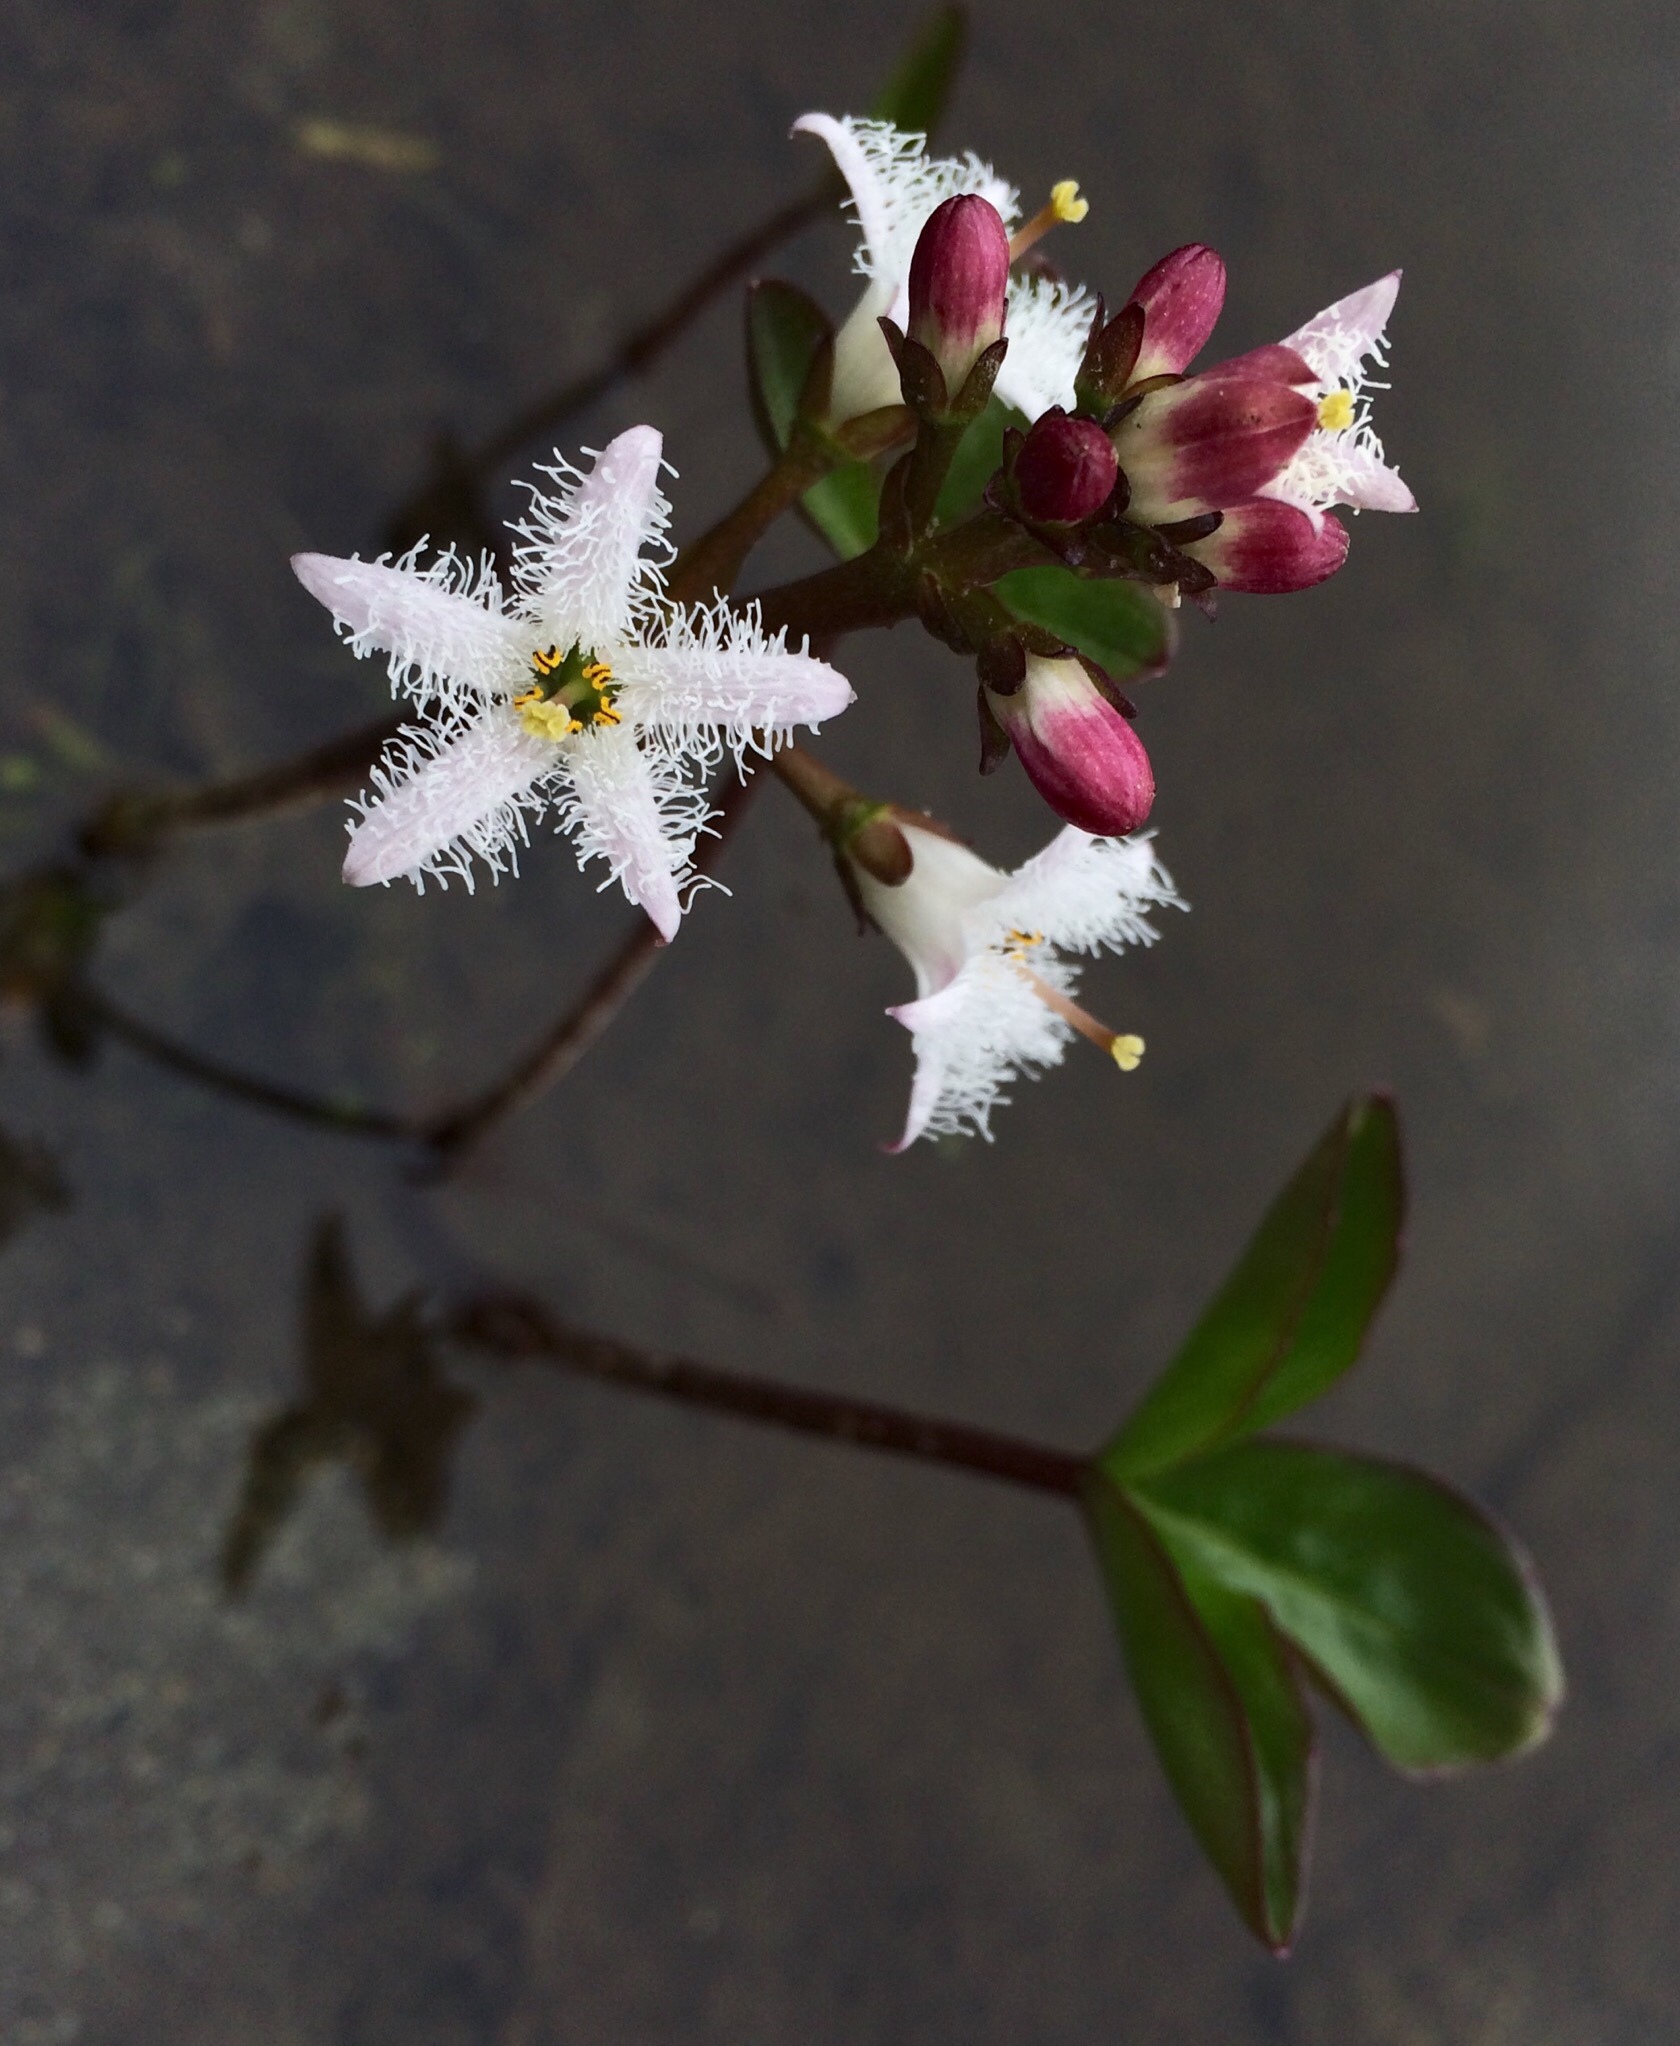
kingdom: Plantae
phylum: Tracheophyta
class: Magnoliopsida
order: Asterales
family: Menyanthaceae
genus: Menyanthes
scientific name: Menyanthes trifoliata
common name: Bogbean
